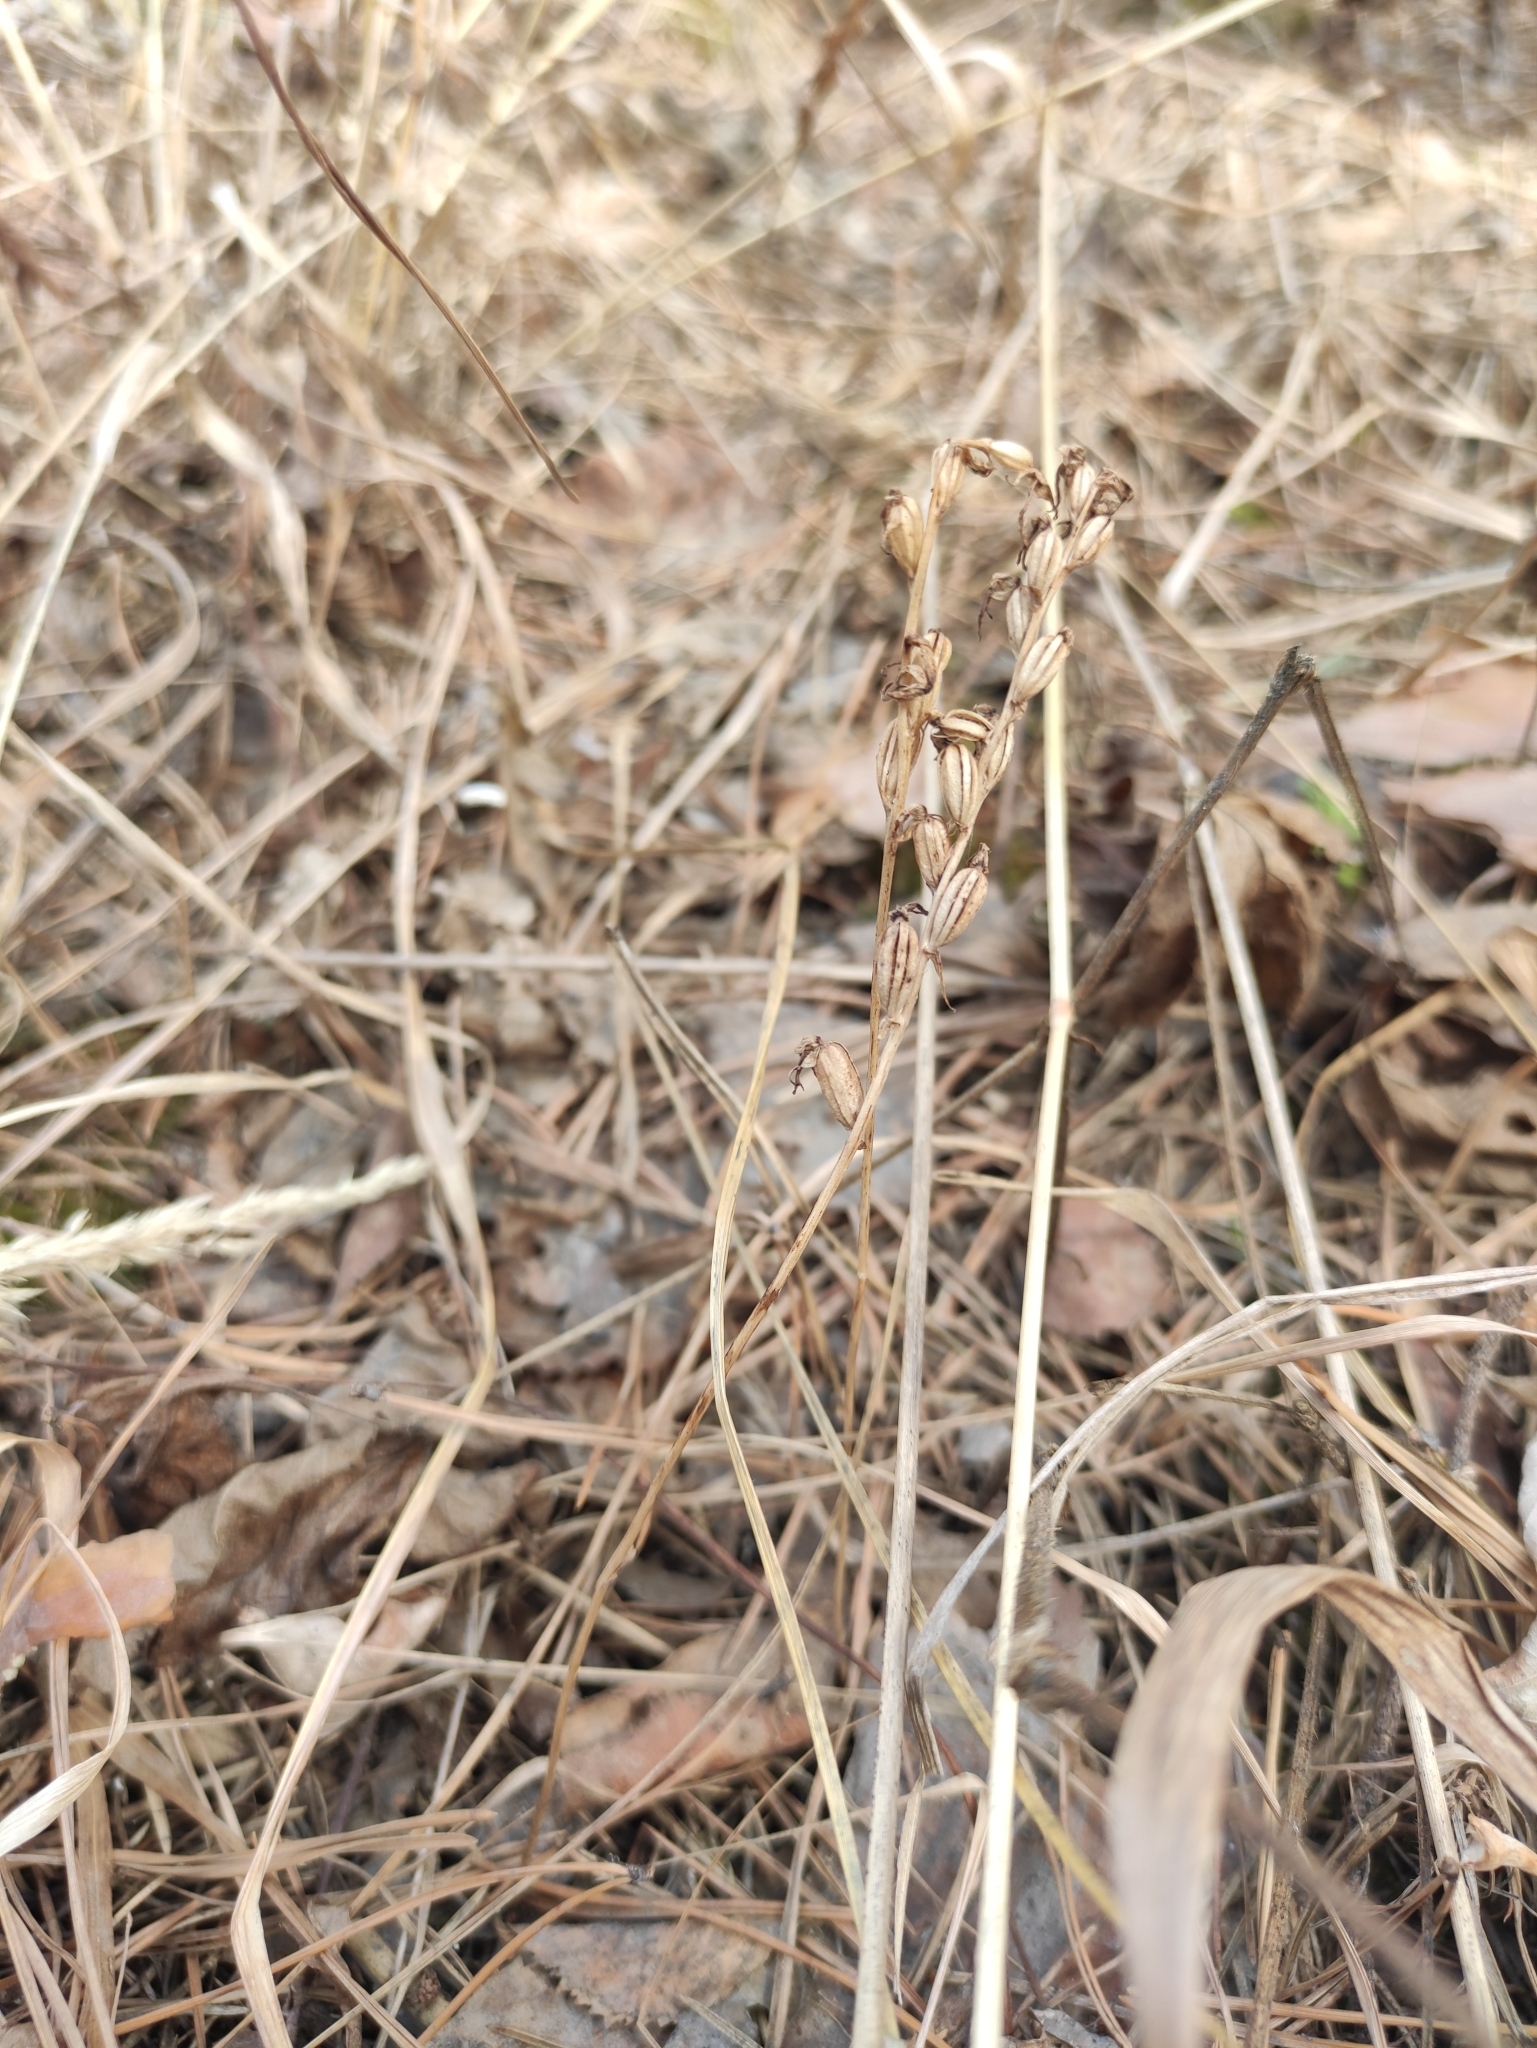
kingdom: Plantae
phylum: Tracheophyta
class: Liliopsida
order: Asparagales
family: Orchidaceae
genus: Hemipilia
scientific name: Hemipilia cucullata
